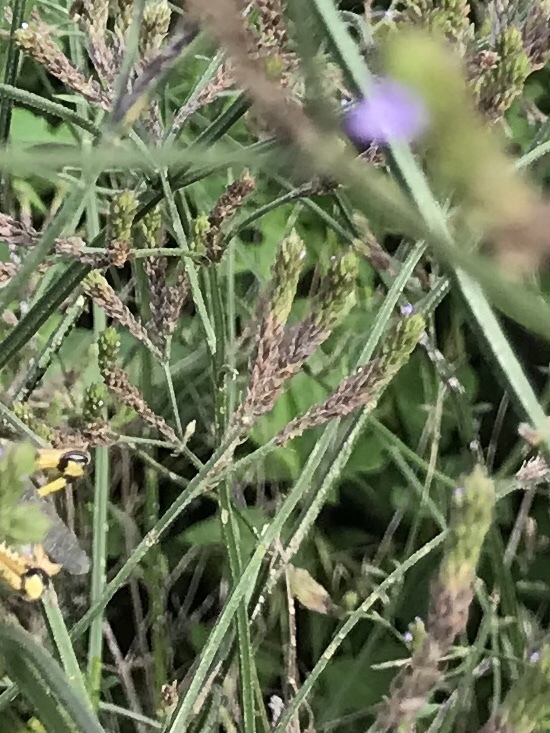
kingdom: Plantae
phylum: Tracheophyta
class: Magnoliopsida
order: Lamiales
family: Verbenaceae
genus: Verbena
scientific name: Verbena brasiliensis
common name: Brazilian vervain
